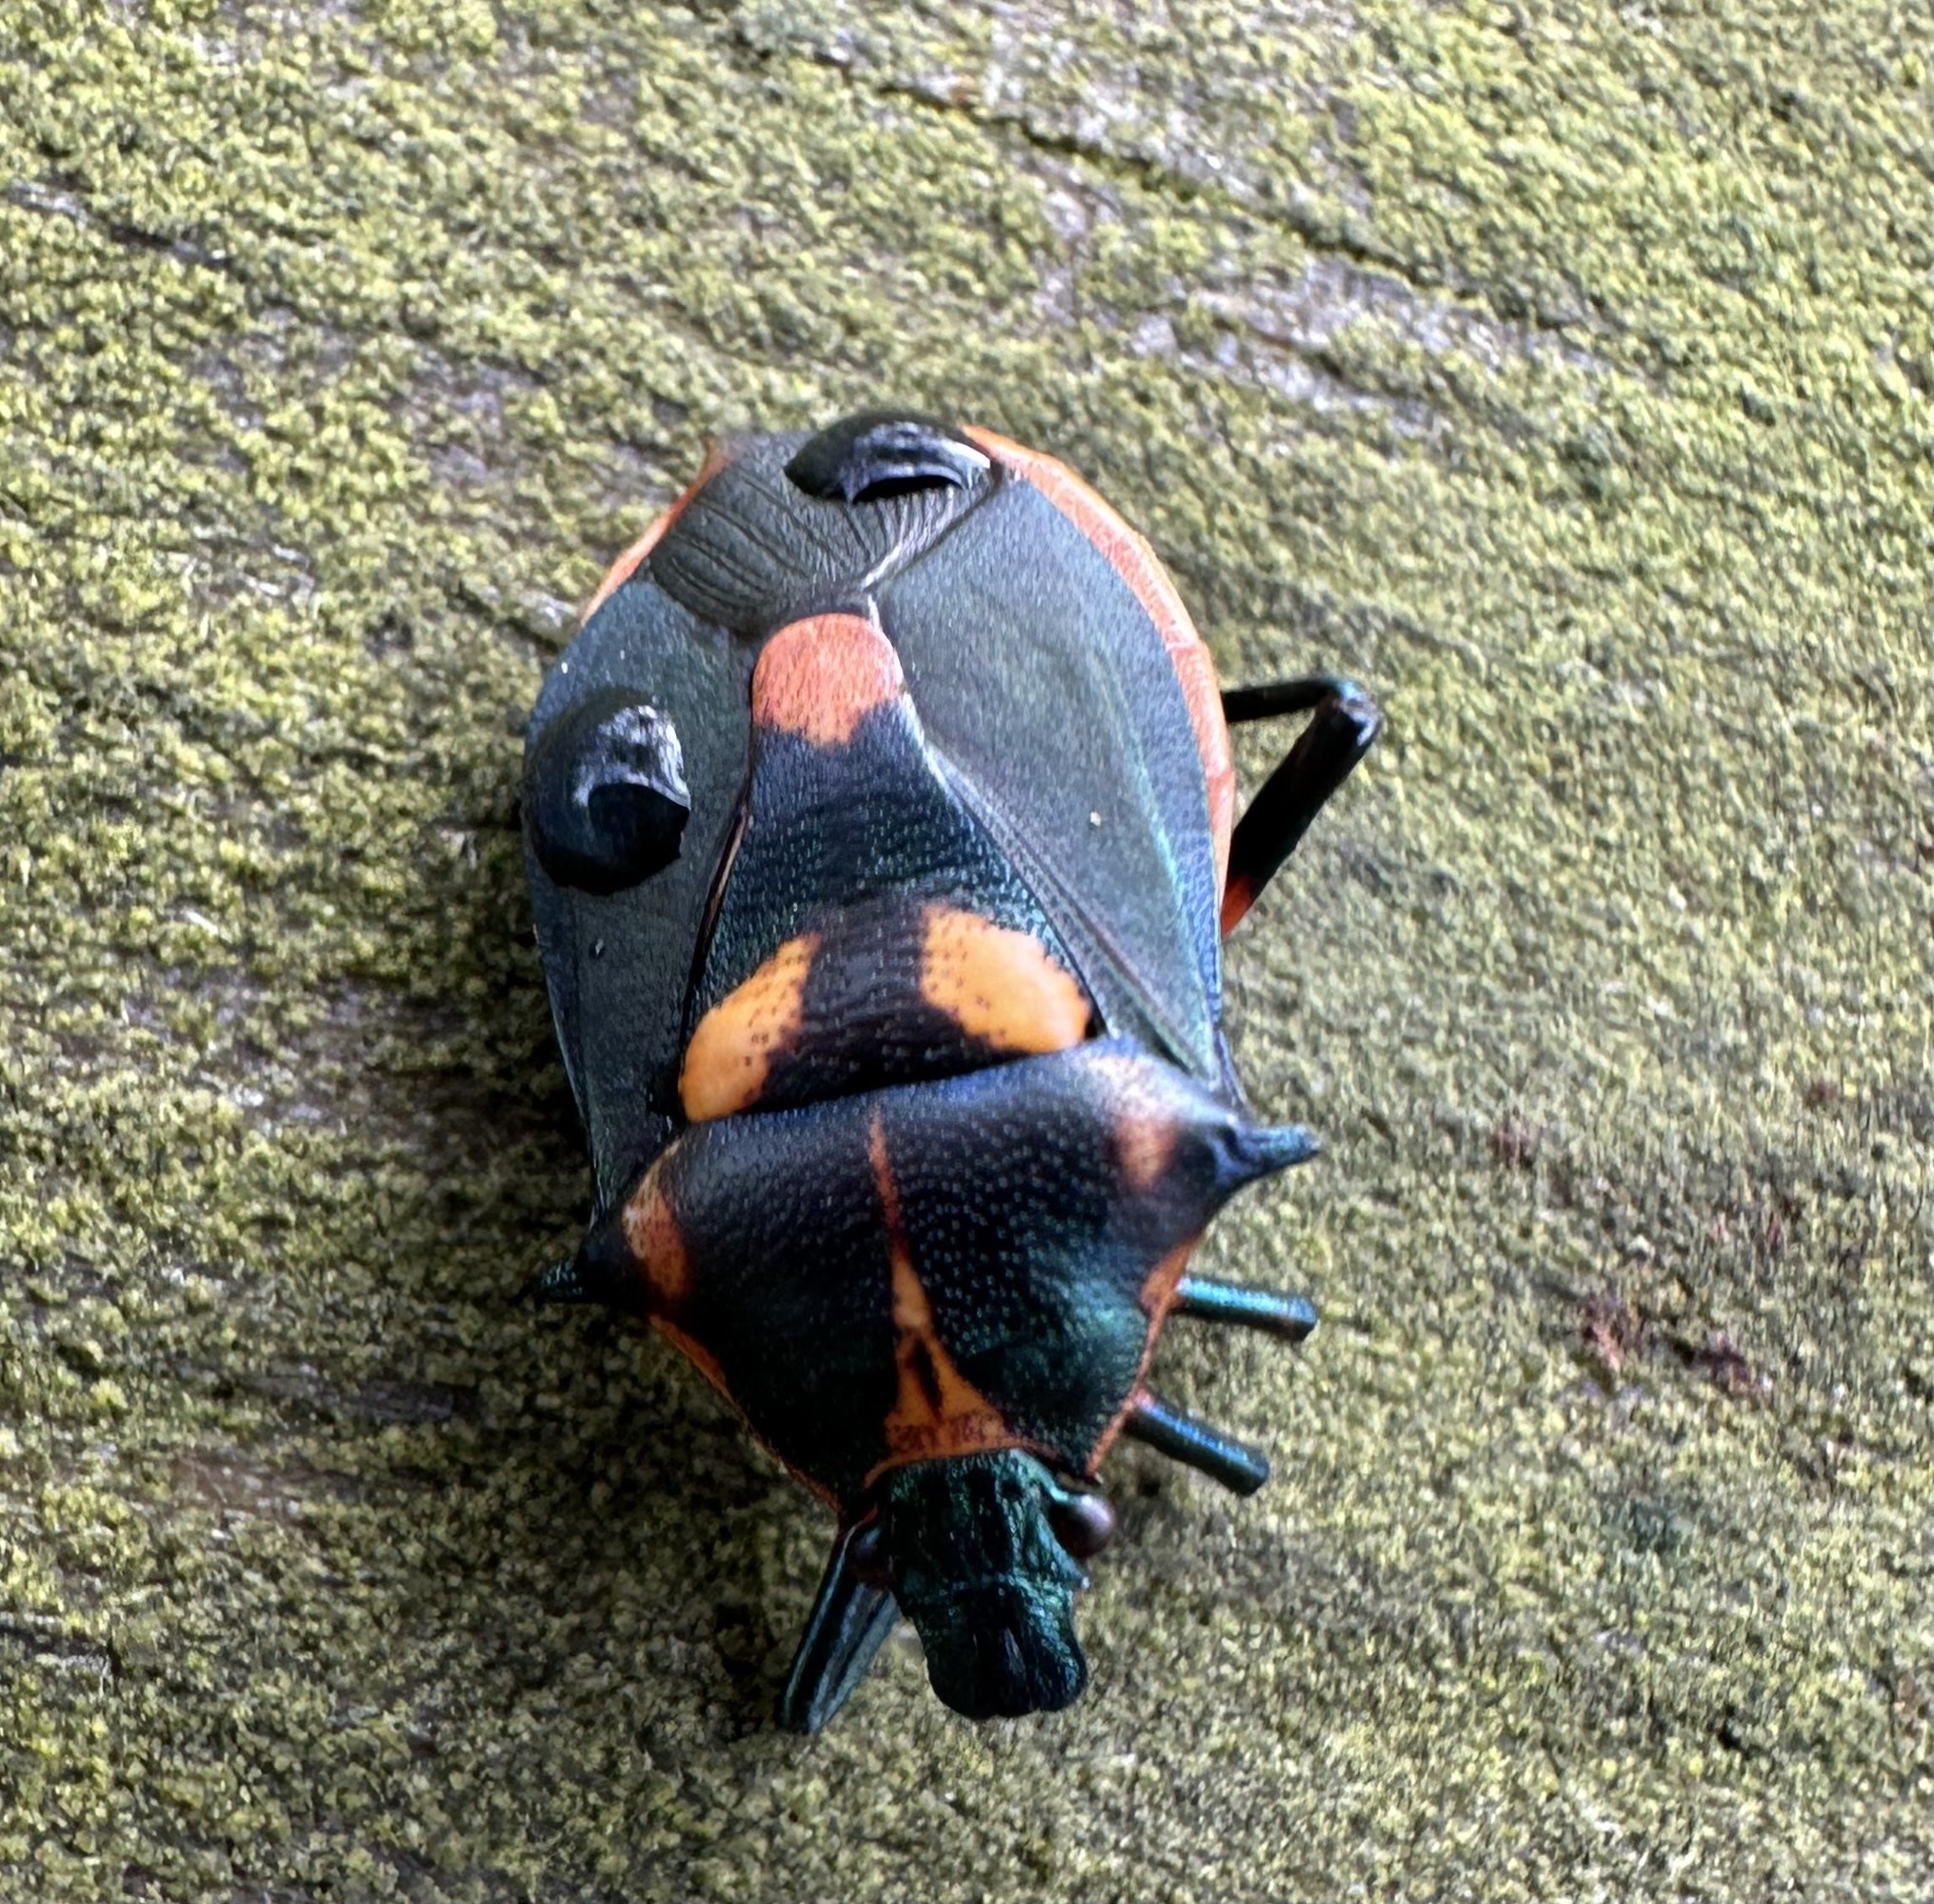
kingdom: Animalia
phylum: Arthropoda
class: Insecta
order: Hemiptera
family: Pentatomidae
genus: Euthyrhynchus
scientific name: Euthyrhynchus floridanus
